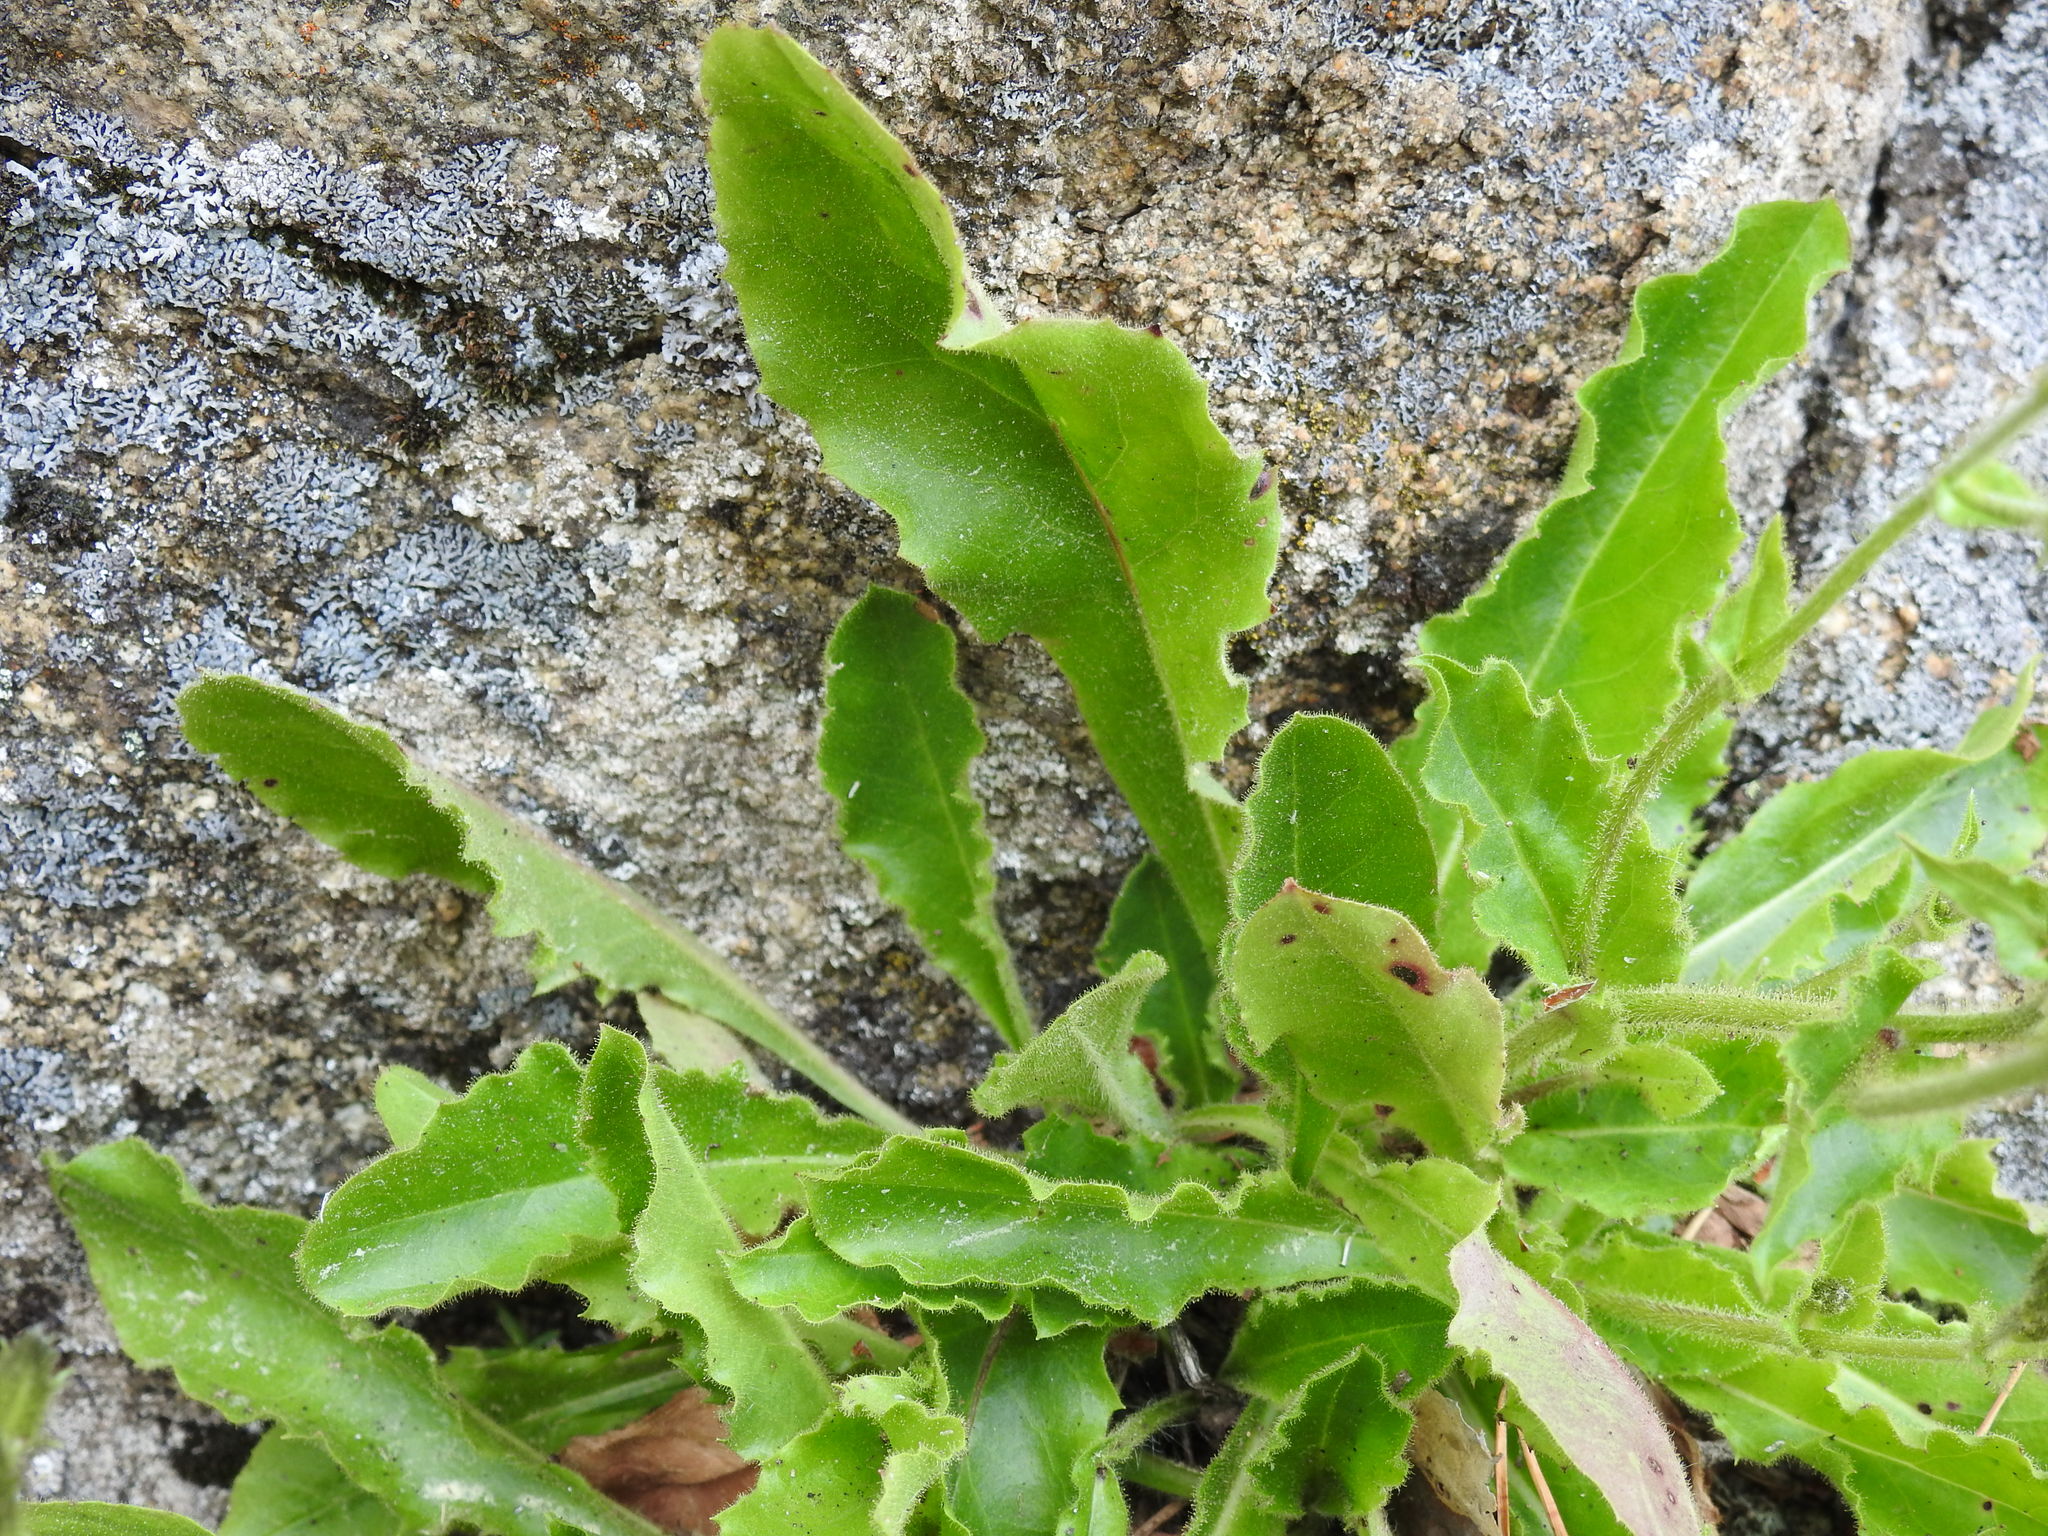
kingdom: Plantae
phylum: Tracheophyta
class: Magnoliopsida
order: Asterales
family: Asteraceae
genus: Hieracium
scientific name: Hieracium amplexicaule
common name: Sticky hawkweed
